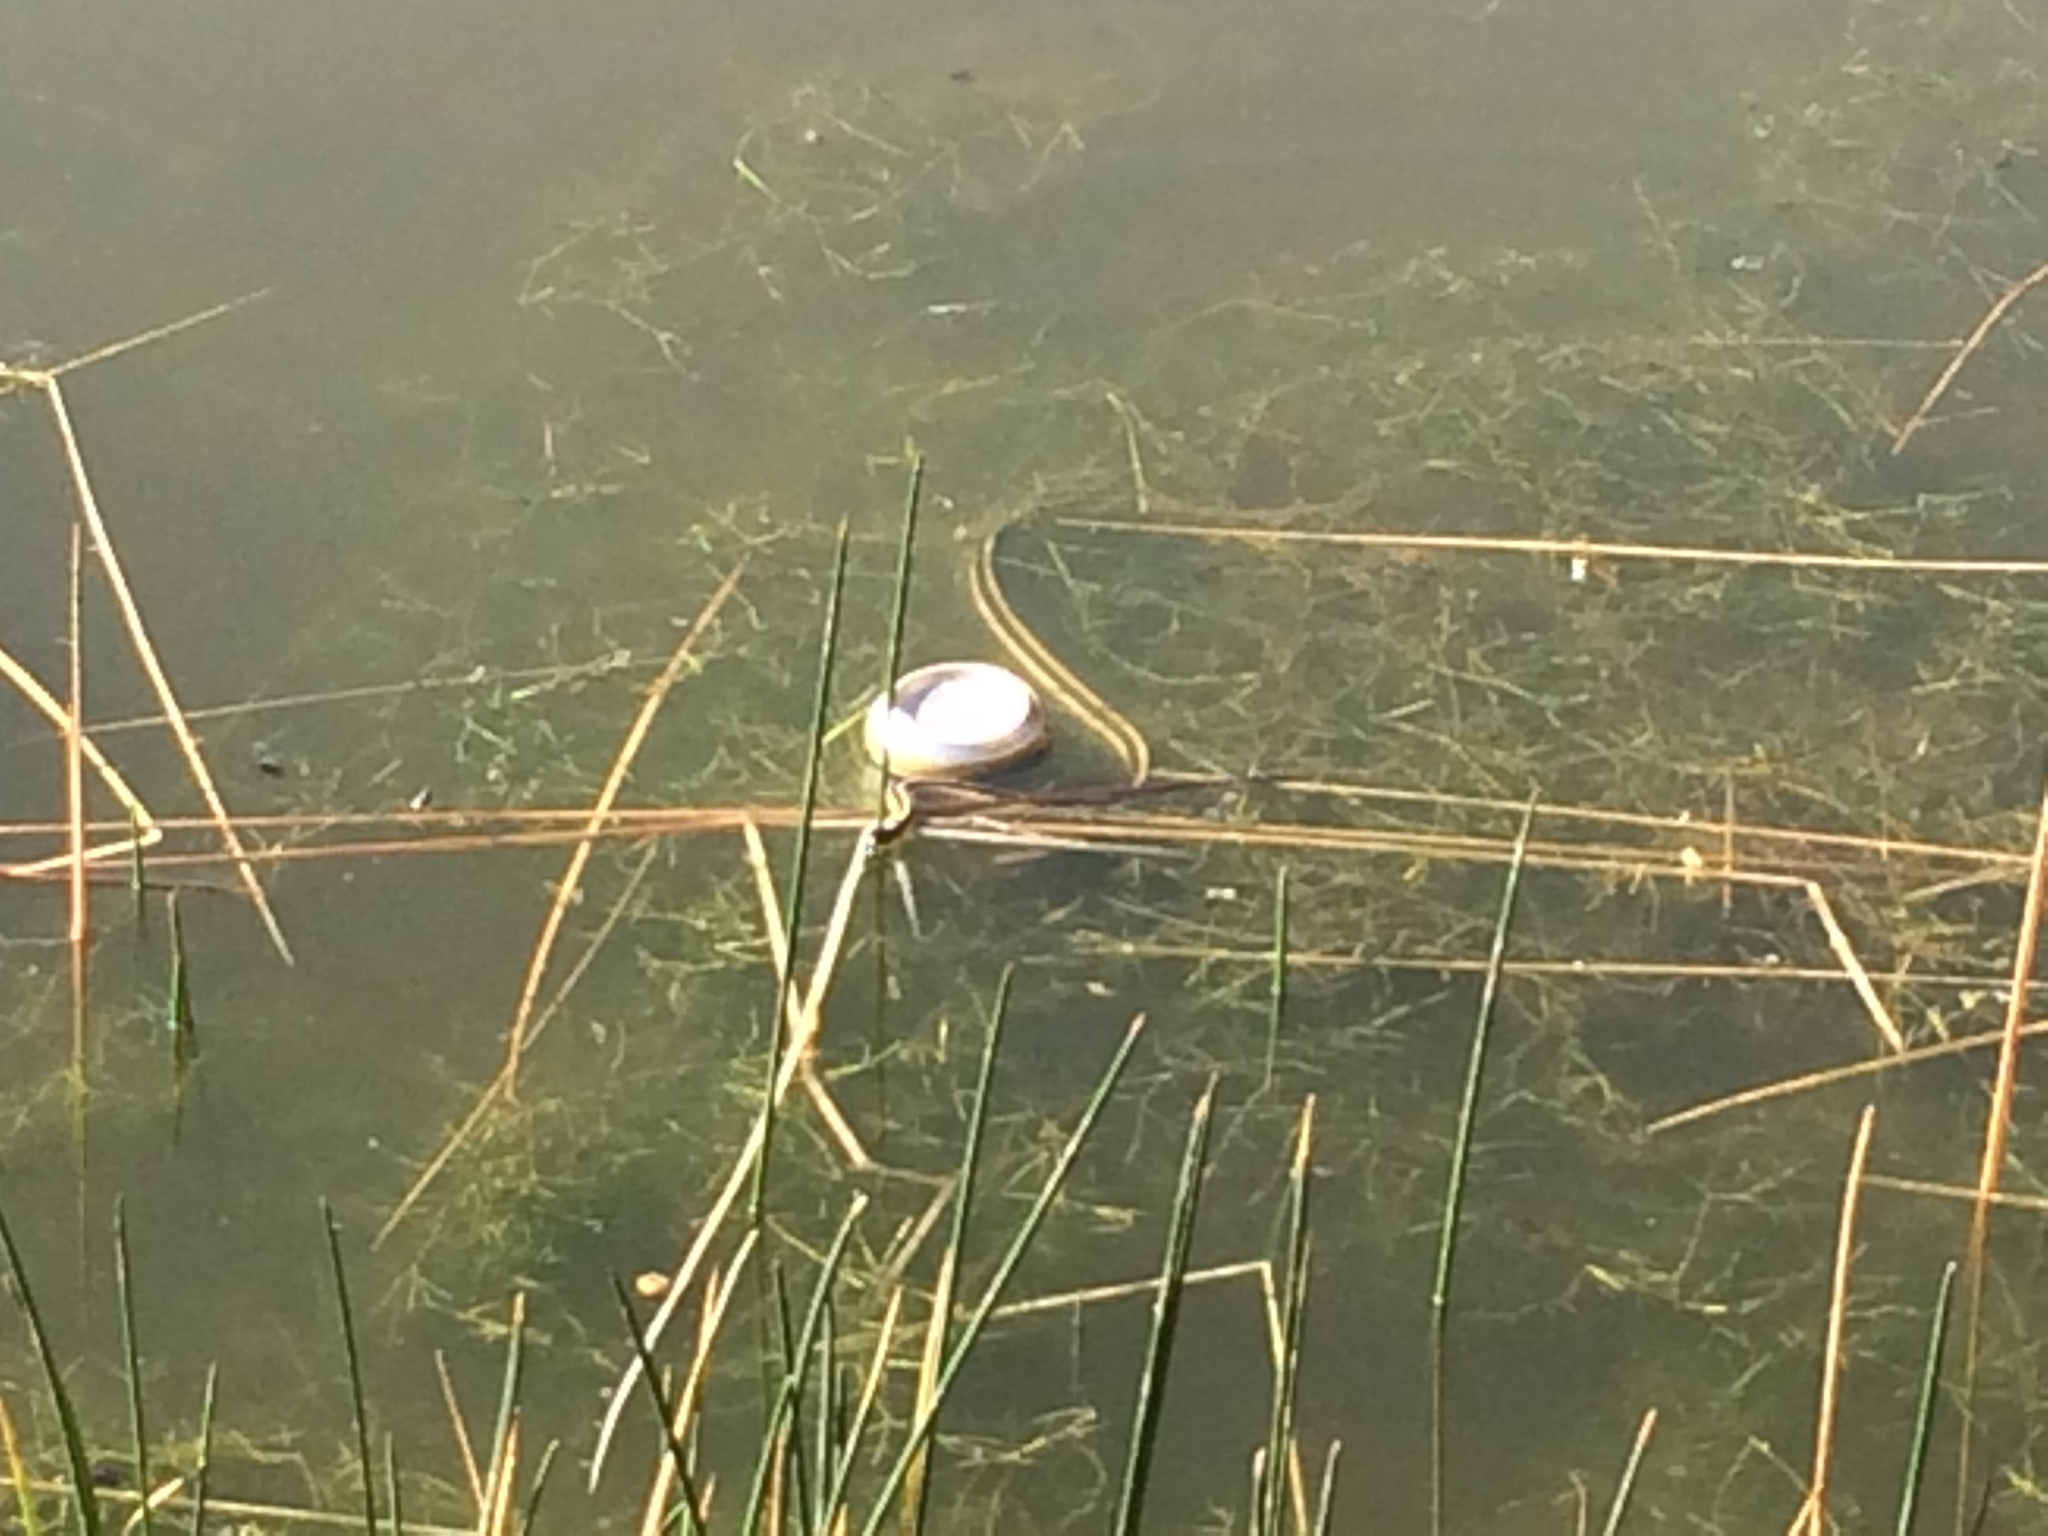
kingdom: Animalia
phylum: Chordata
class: Squamata
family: Colubridae
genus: Thamnophis
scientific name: Thamnophis sirtalis
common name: Common garter snake
